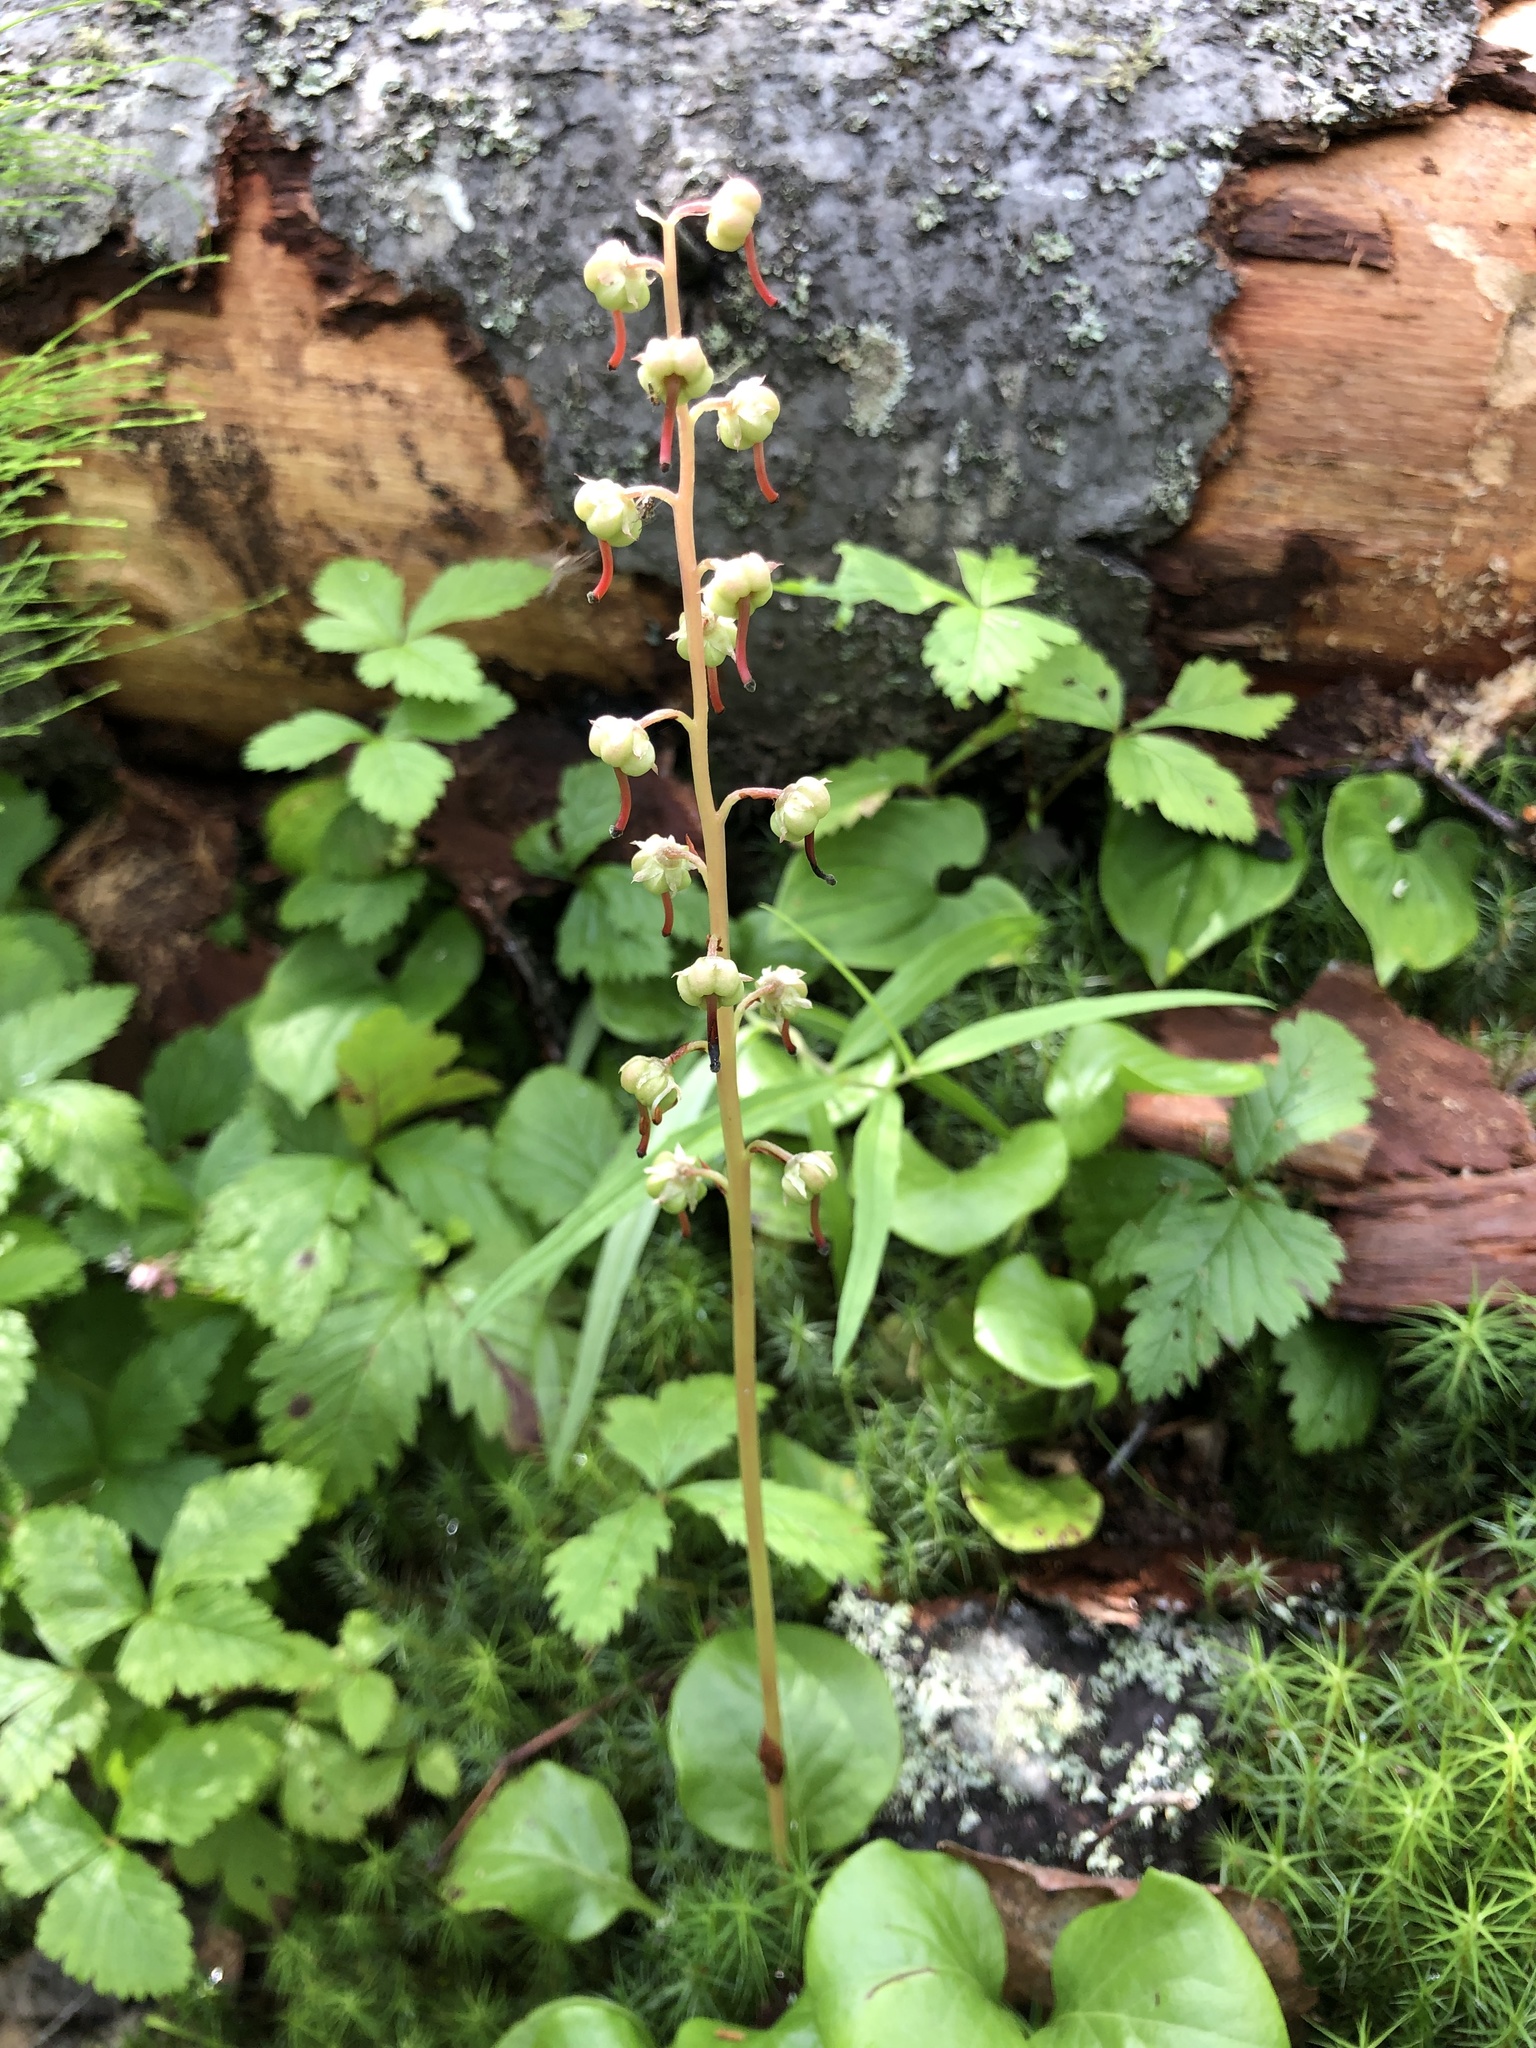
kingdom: Plantae
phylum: Tracheophyta
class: Magnoliopsida
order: Ericales
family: Ericaceae
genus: Pyrola
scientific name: Pyrola rotundifolia
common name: Round-leaved wintergreen
